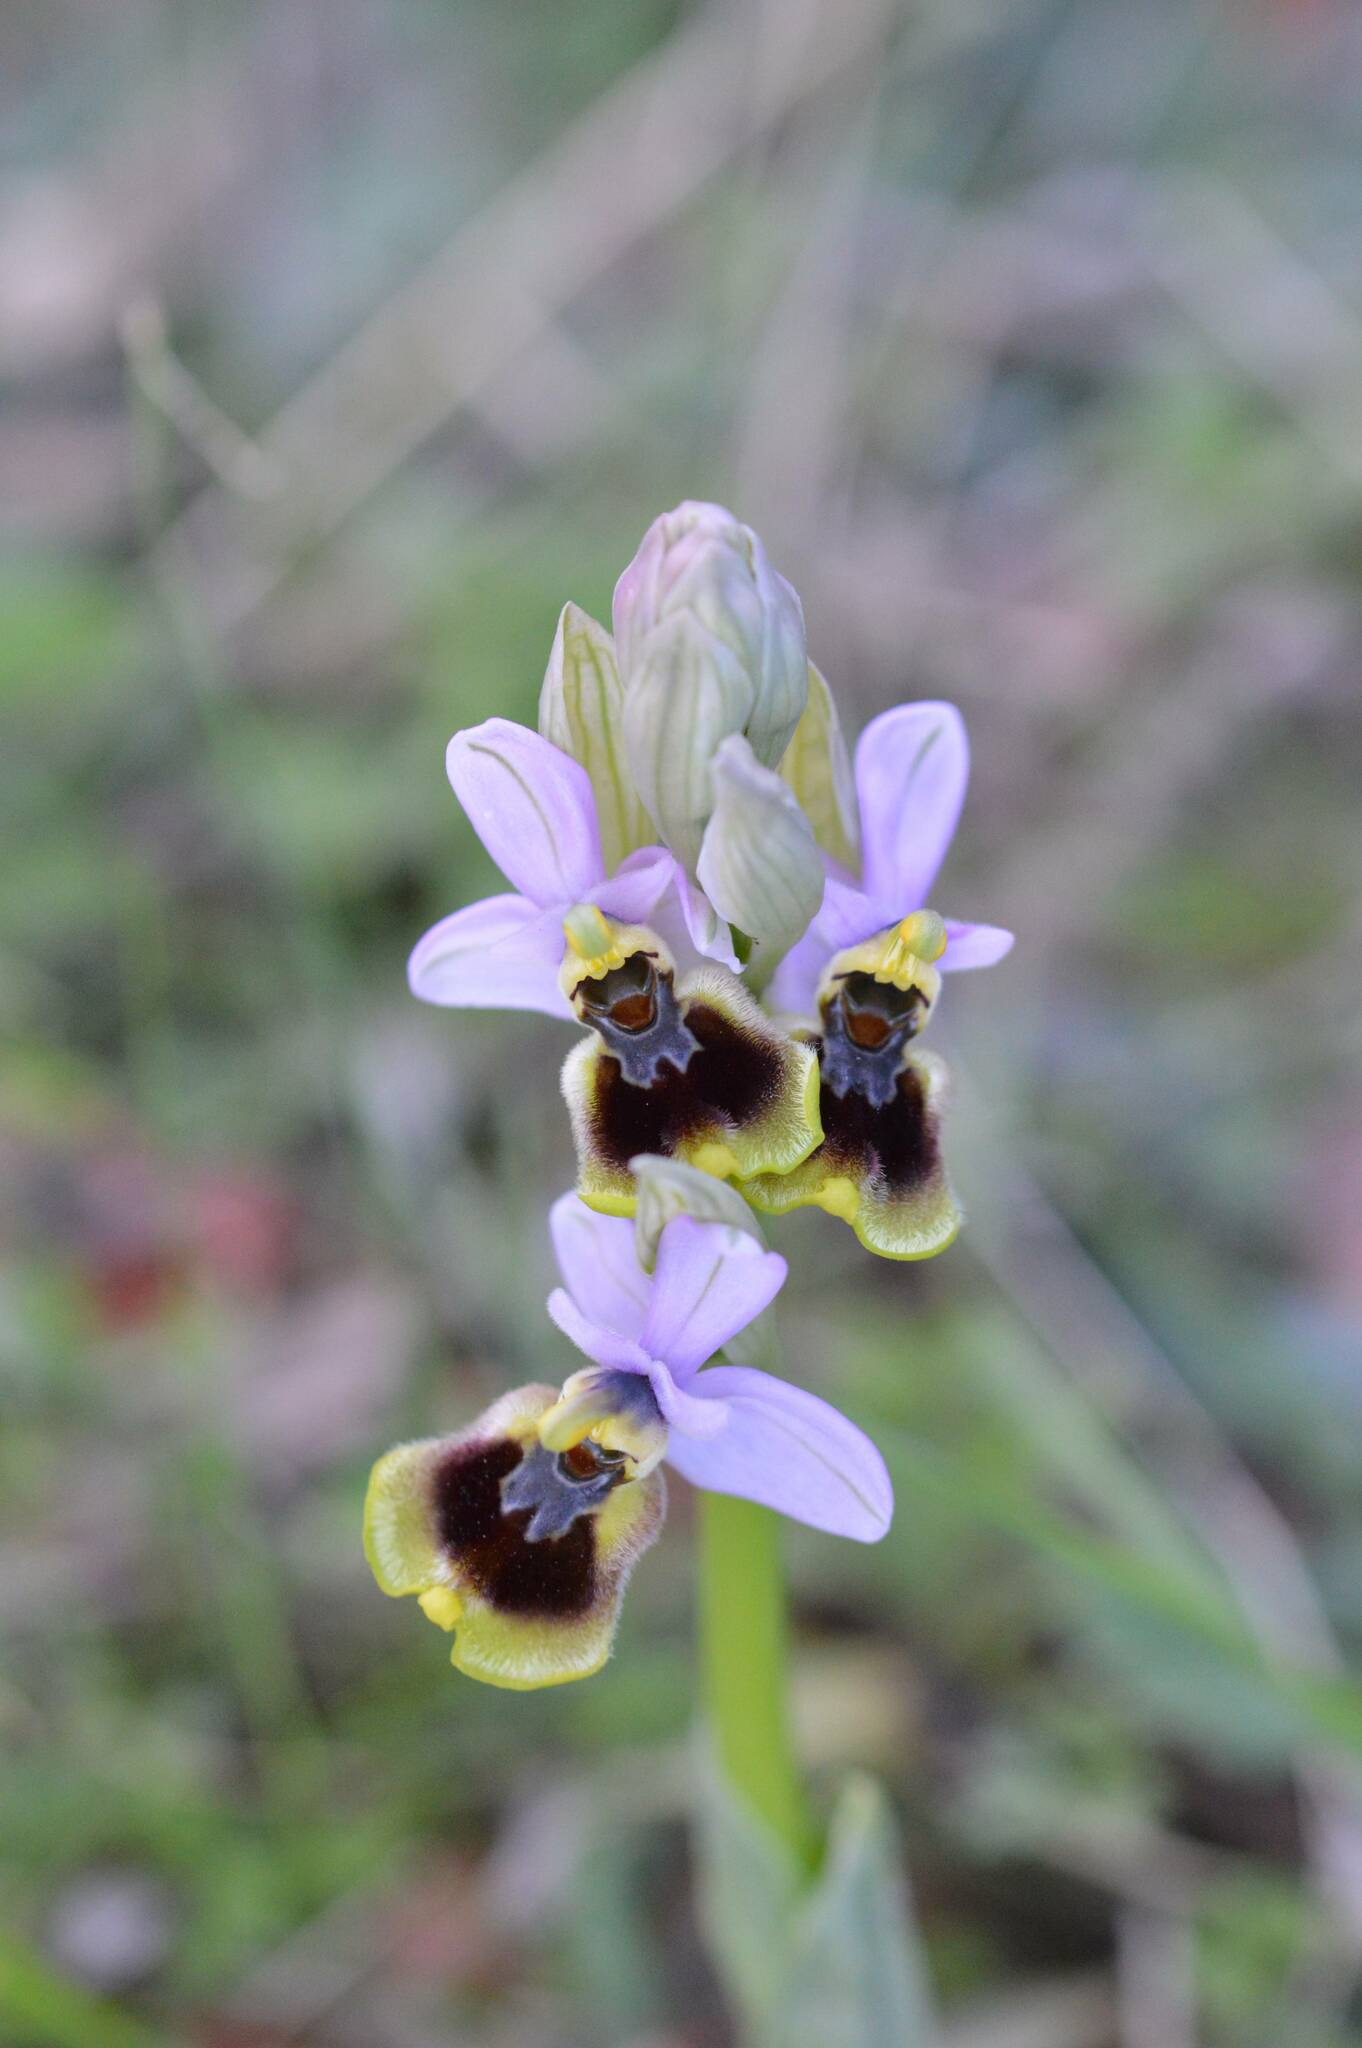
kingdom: Plantae
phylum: Tracheophyta
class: Liliopsida
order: Asparagales
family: Orchidaceae
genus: Ophrys
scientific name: Ophrys tenthredinifera
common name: Sawfly orchid
